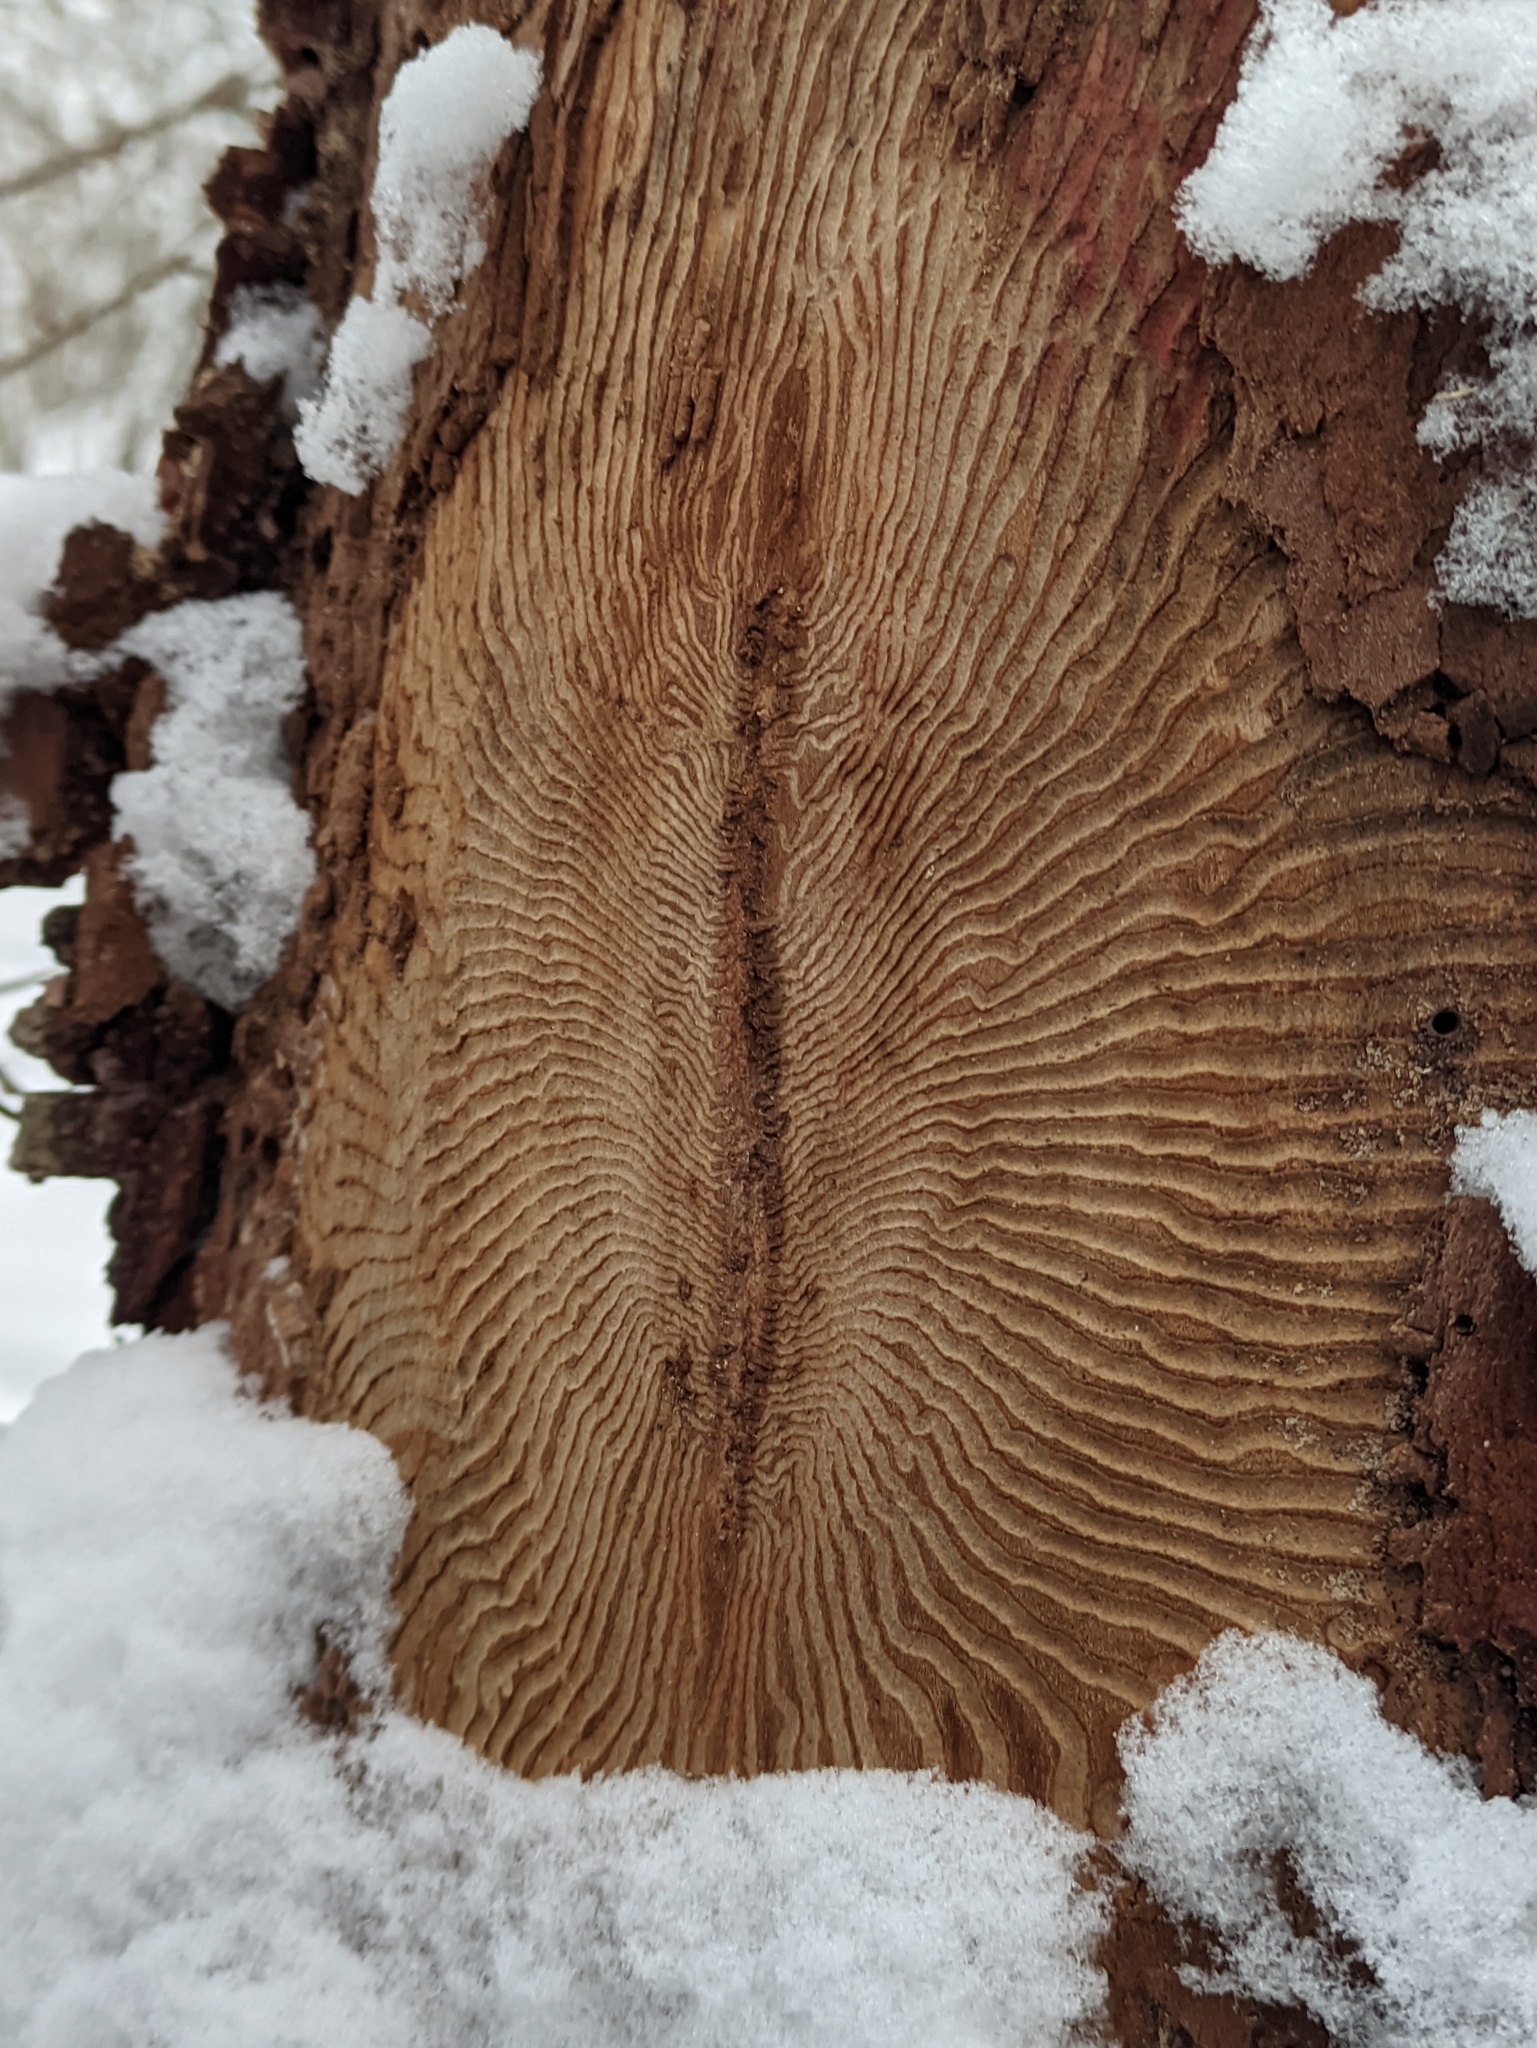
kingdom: Animalia
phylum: Arthropoda
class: Insecta
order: Coleoptera
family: Curculionidae
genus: Scolytus
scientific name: Scolytus ratzeburgii
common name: Birch bark beetle
